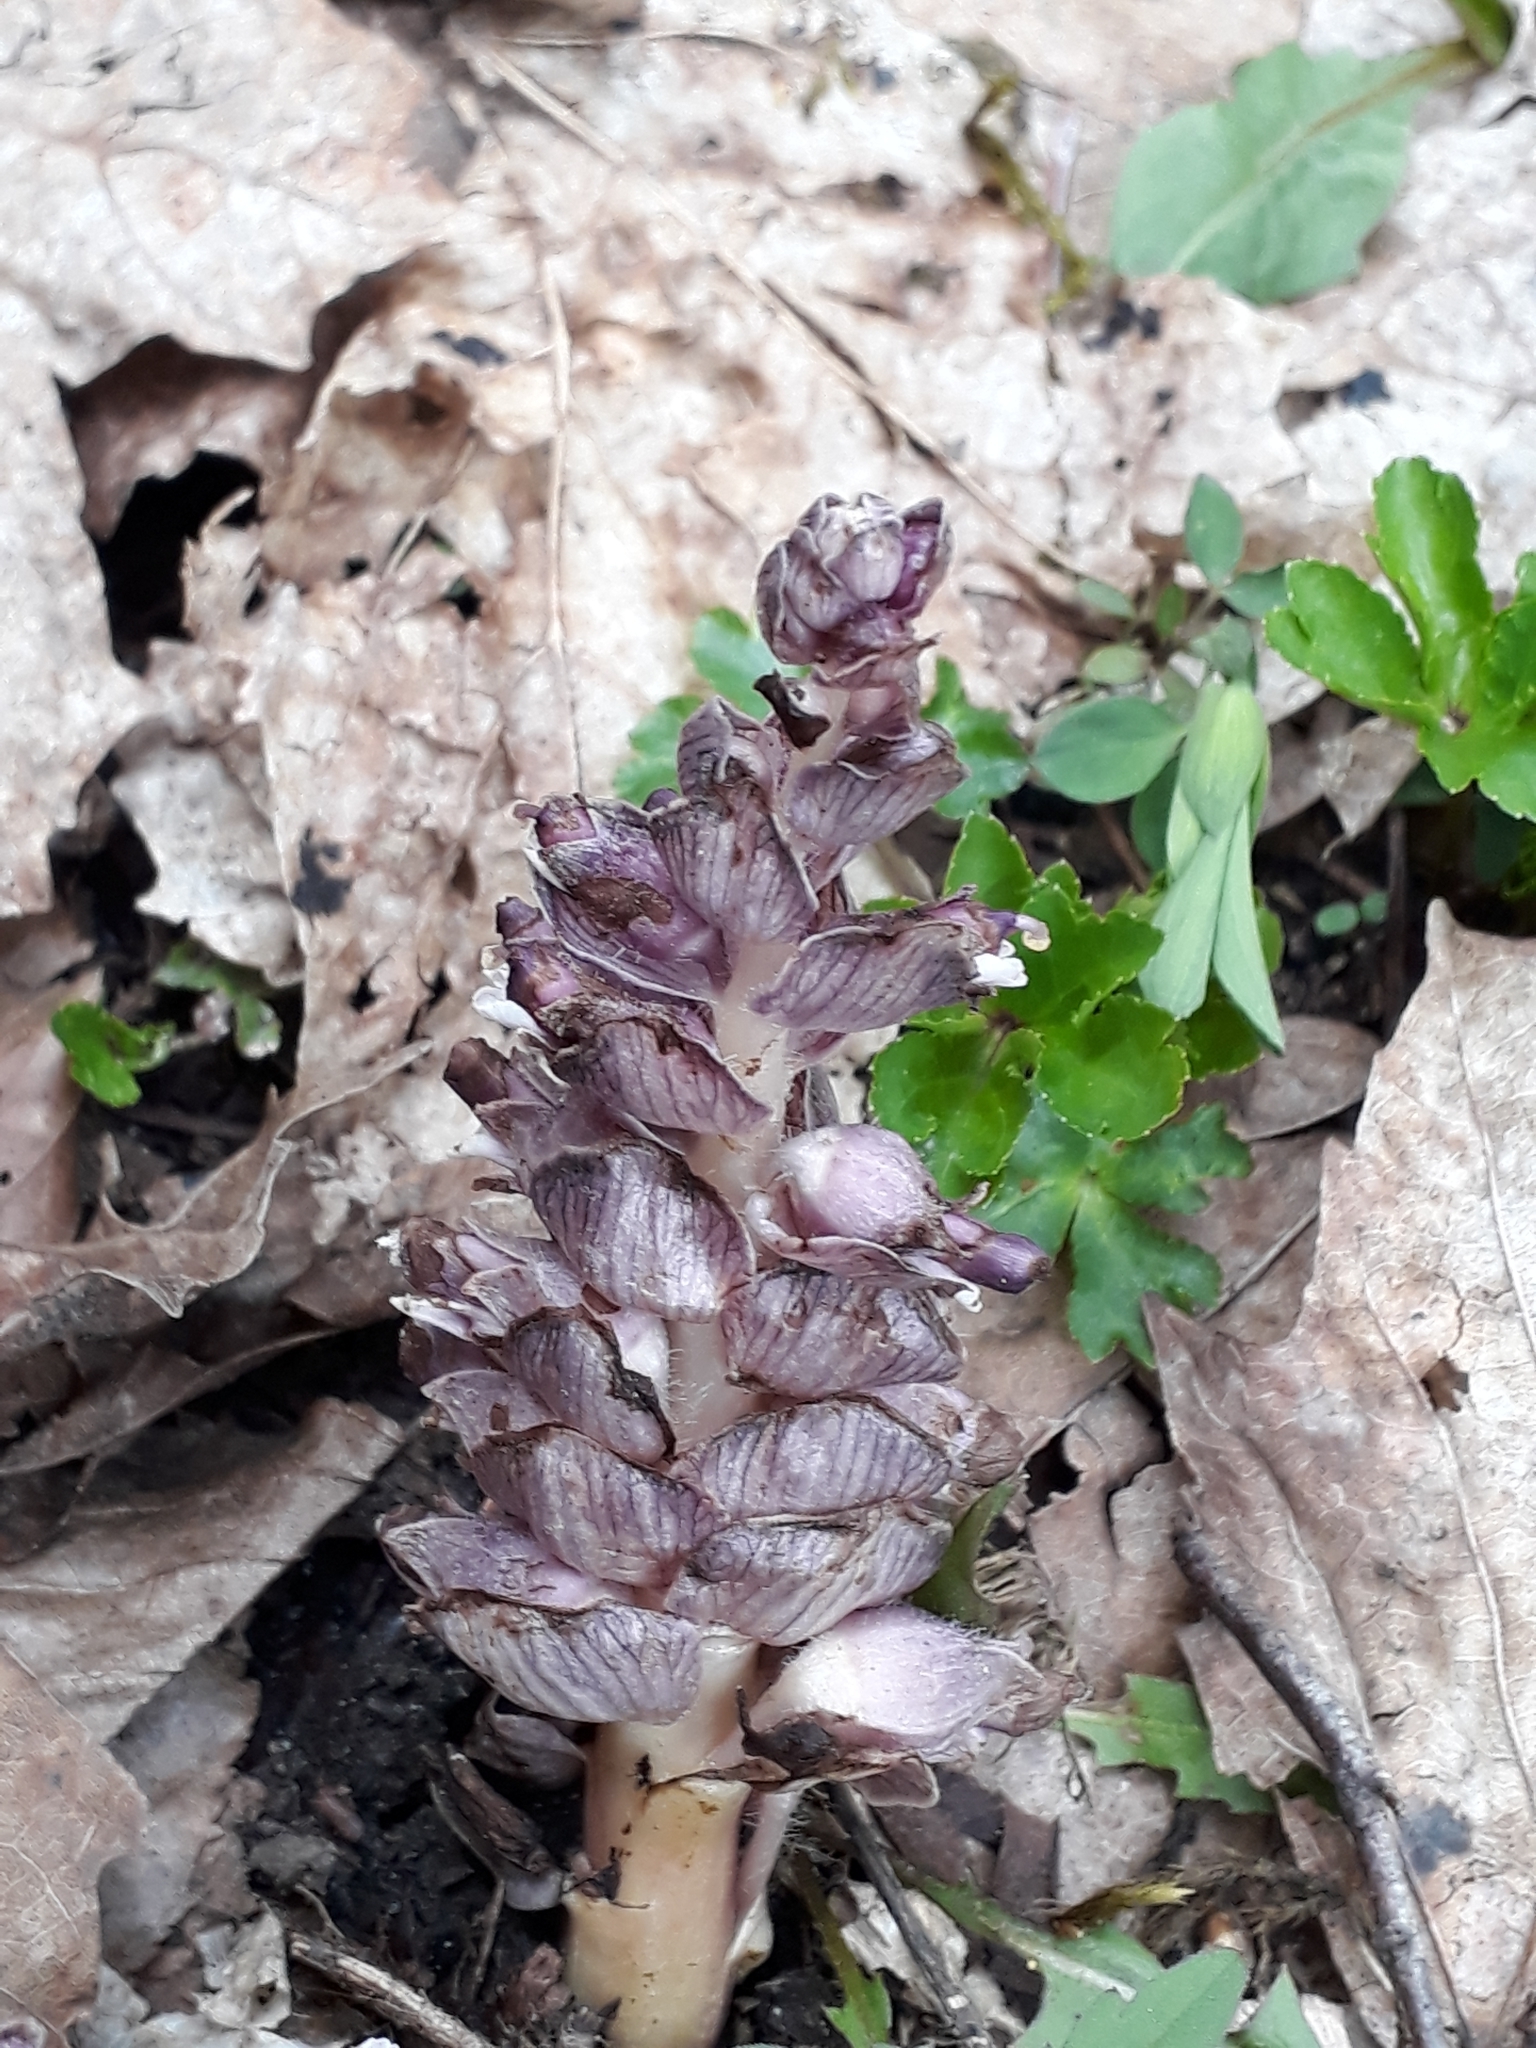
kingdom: Plantae
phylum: Tracheophyta
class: Magnoliopsida
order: Lamiales
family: Orobanchaceae
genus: Lathraea
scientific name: Lathraea squamaria
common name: Toothwort
